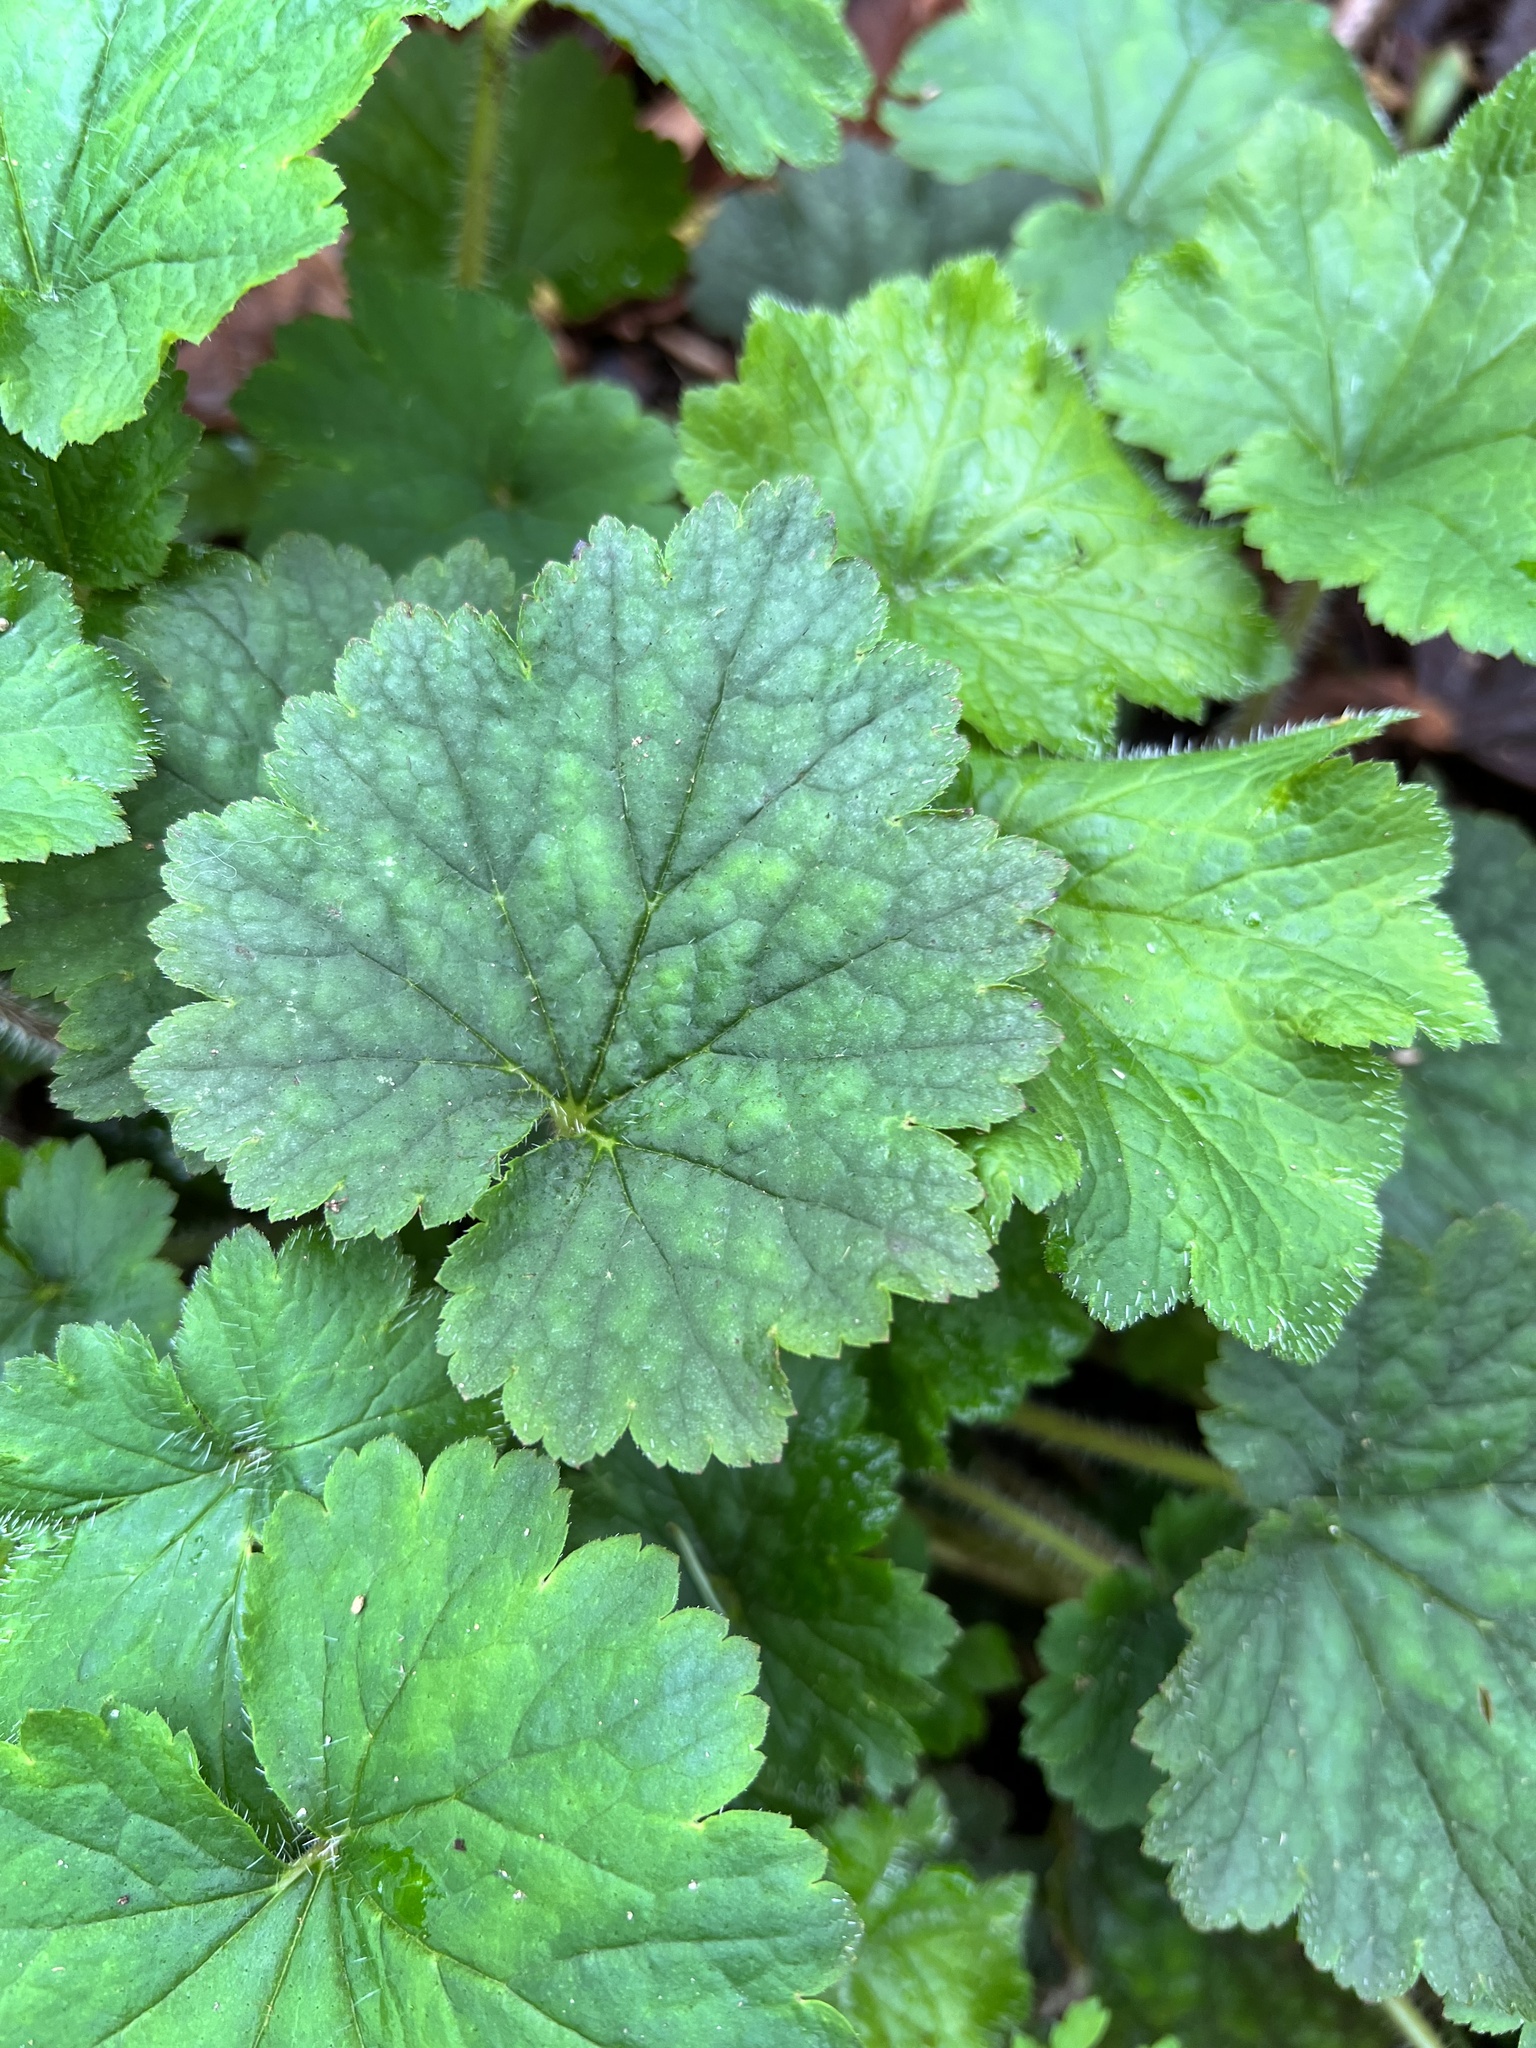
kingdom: Plantae
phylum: Tracheophyta
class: Magnoliopsida
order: Saxifragales
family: Saxifragaceae
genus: Tellima
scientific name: Tellima grandiflora
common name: Fringecups
